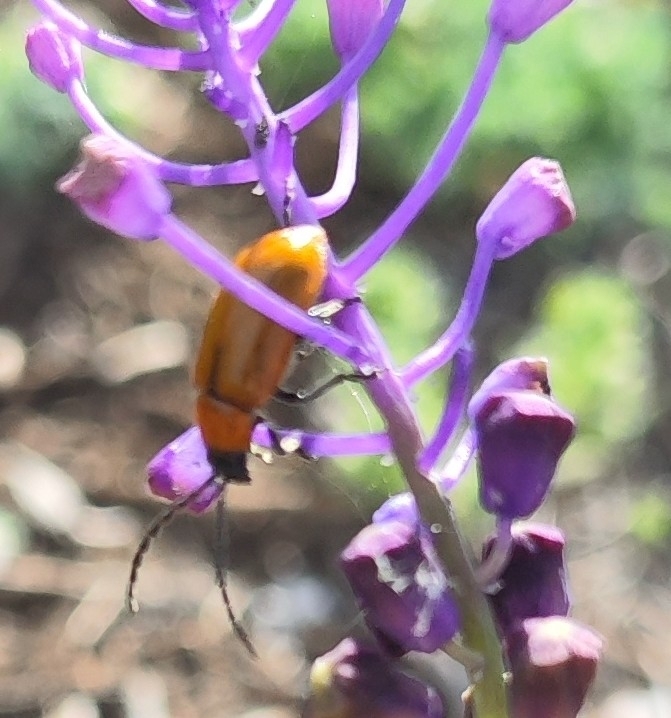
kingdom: Animalia
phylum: Arthropoda
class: Insecta
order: Coleoptera
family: Chrysomelidae
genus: Exosoma
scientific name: Exosoma lusitanicum
